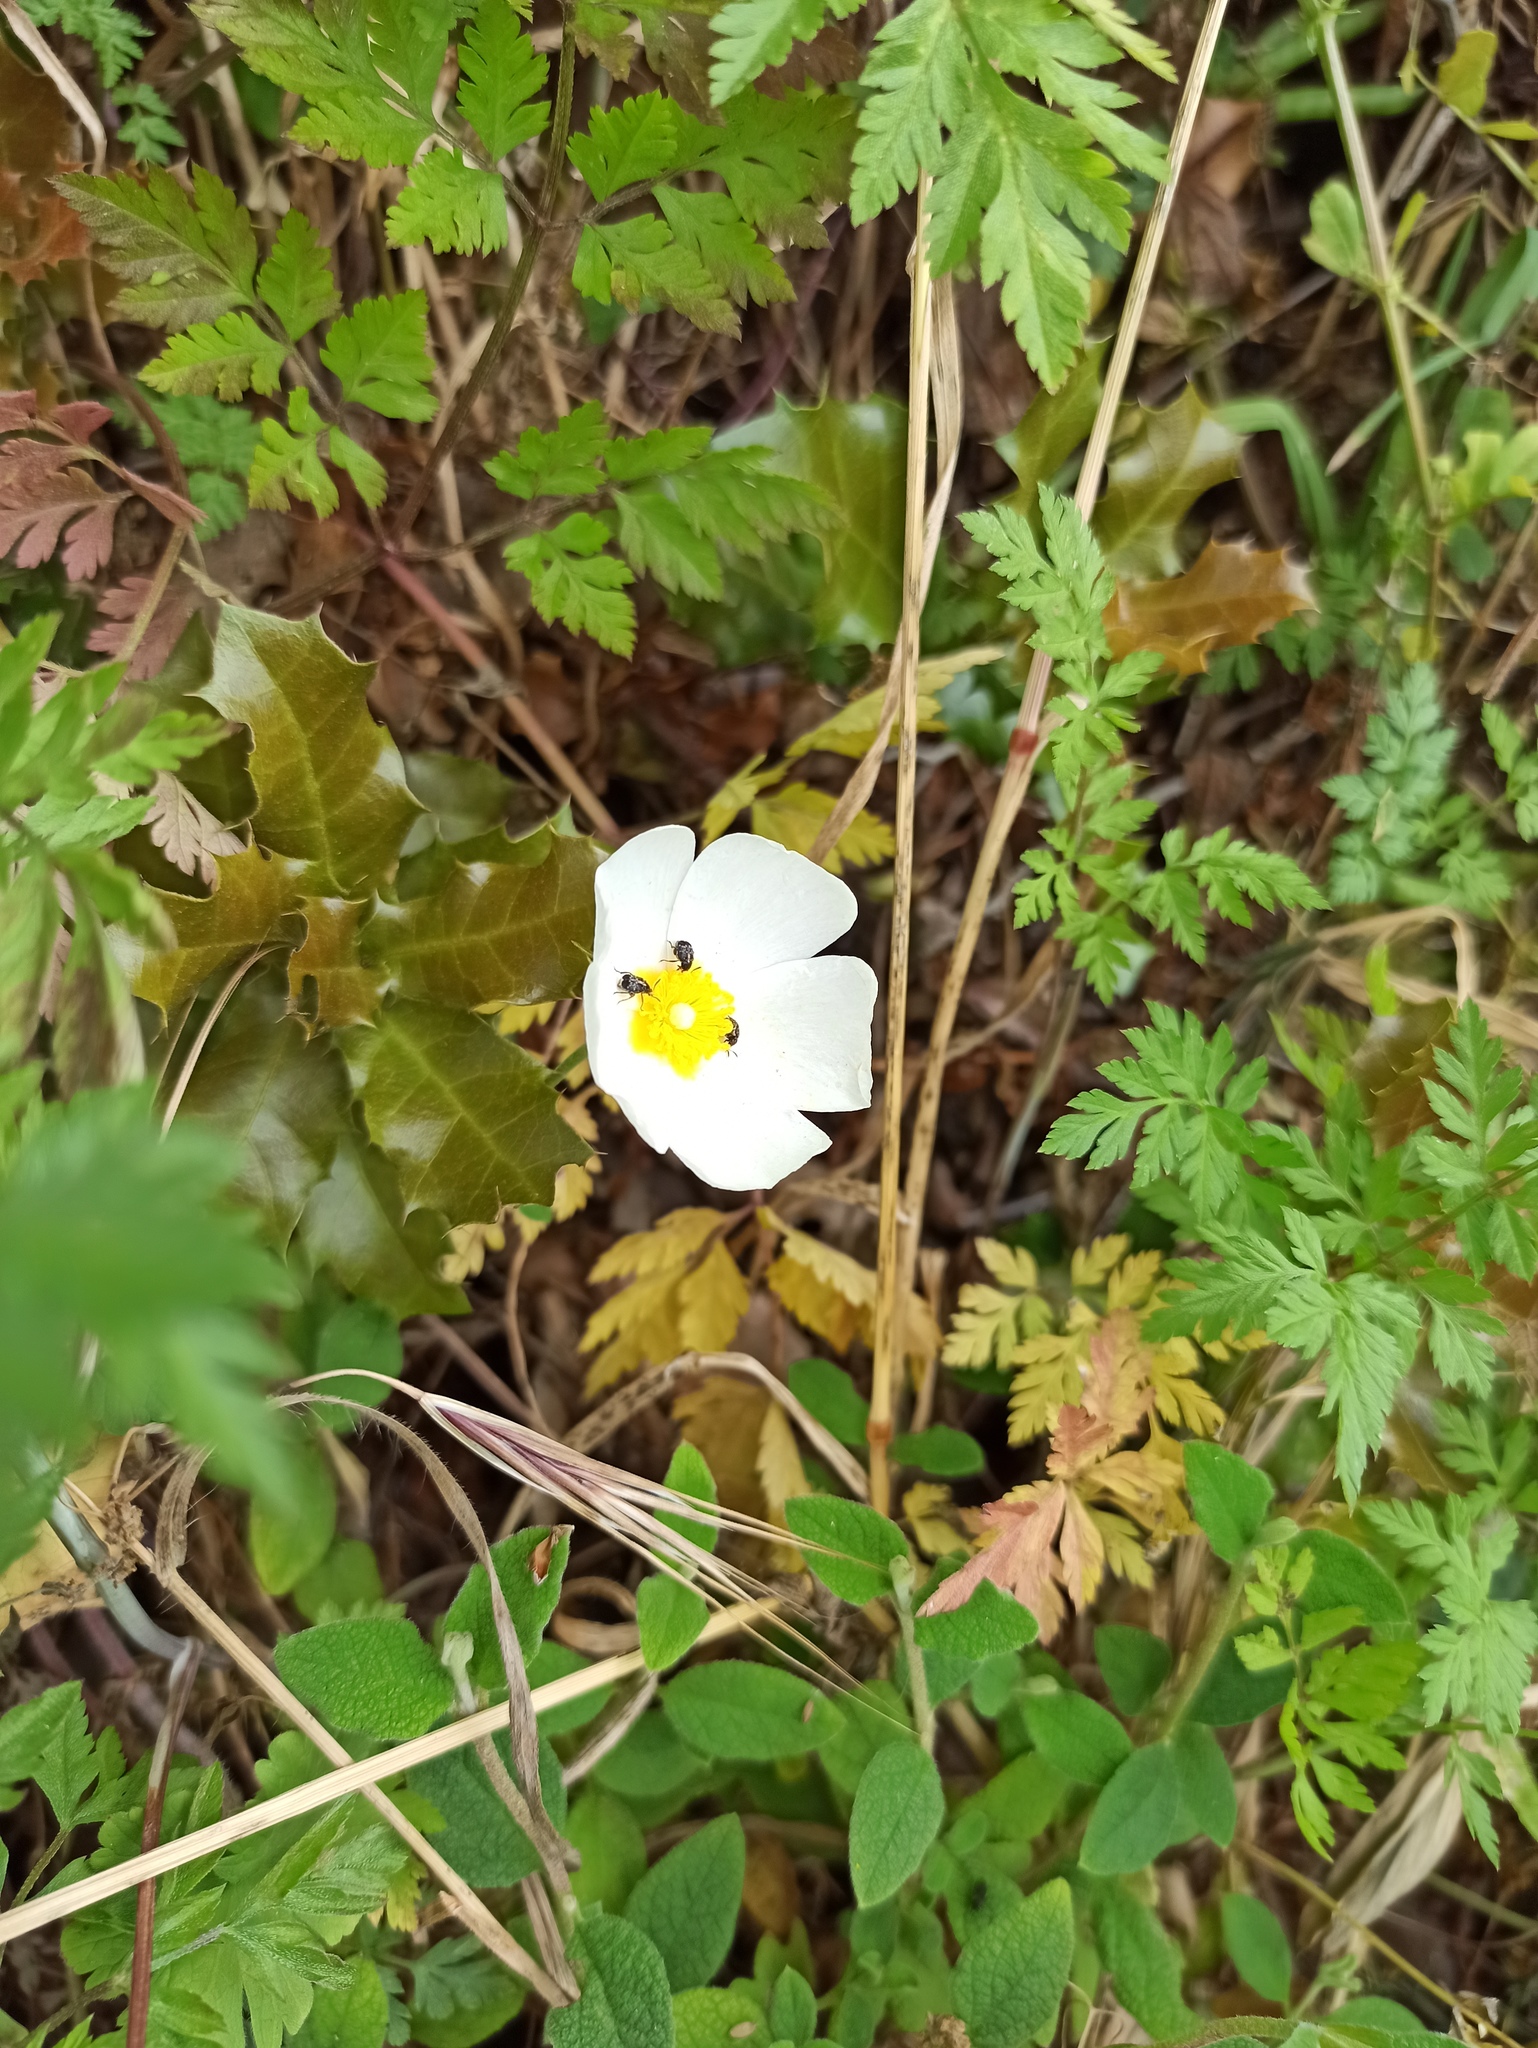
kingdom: Plantae
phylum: Tracheophyta
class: Magnoliopsida
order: Malvales
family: Cistaceae
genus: Cistus
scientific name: Cistus salviifolius
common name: Salvia cistus
